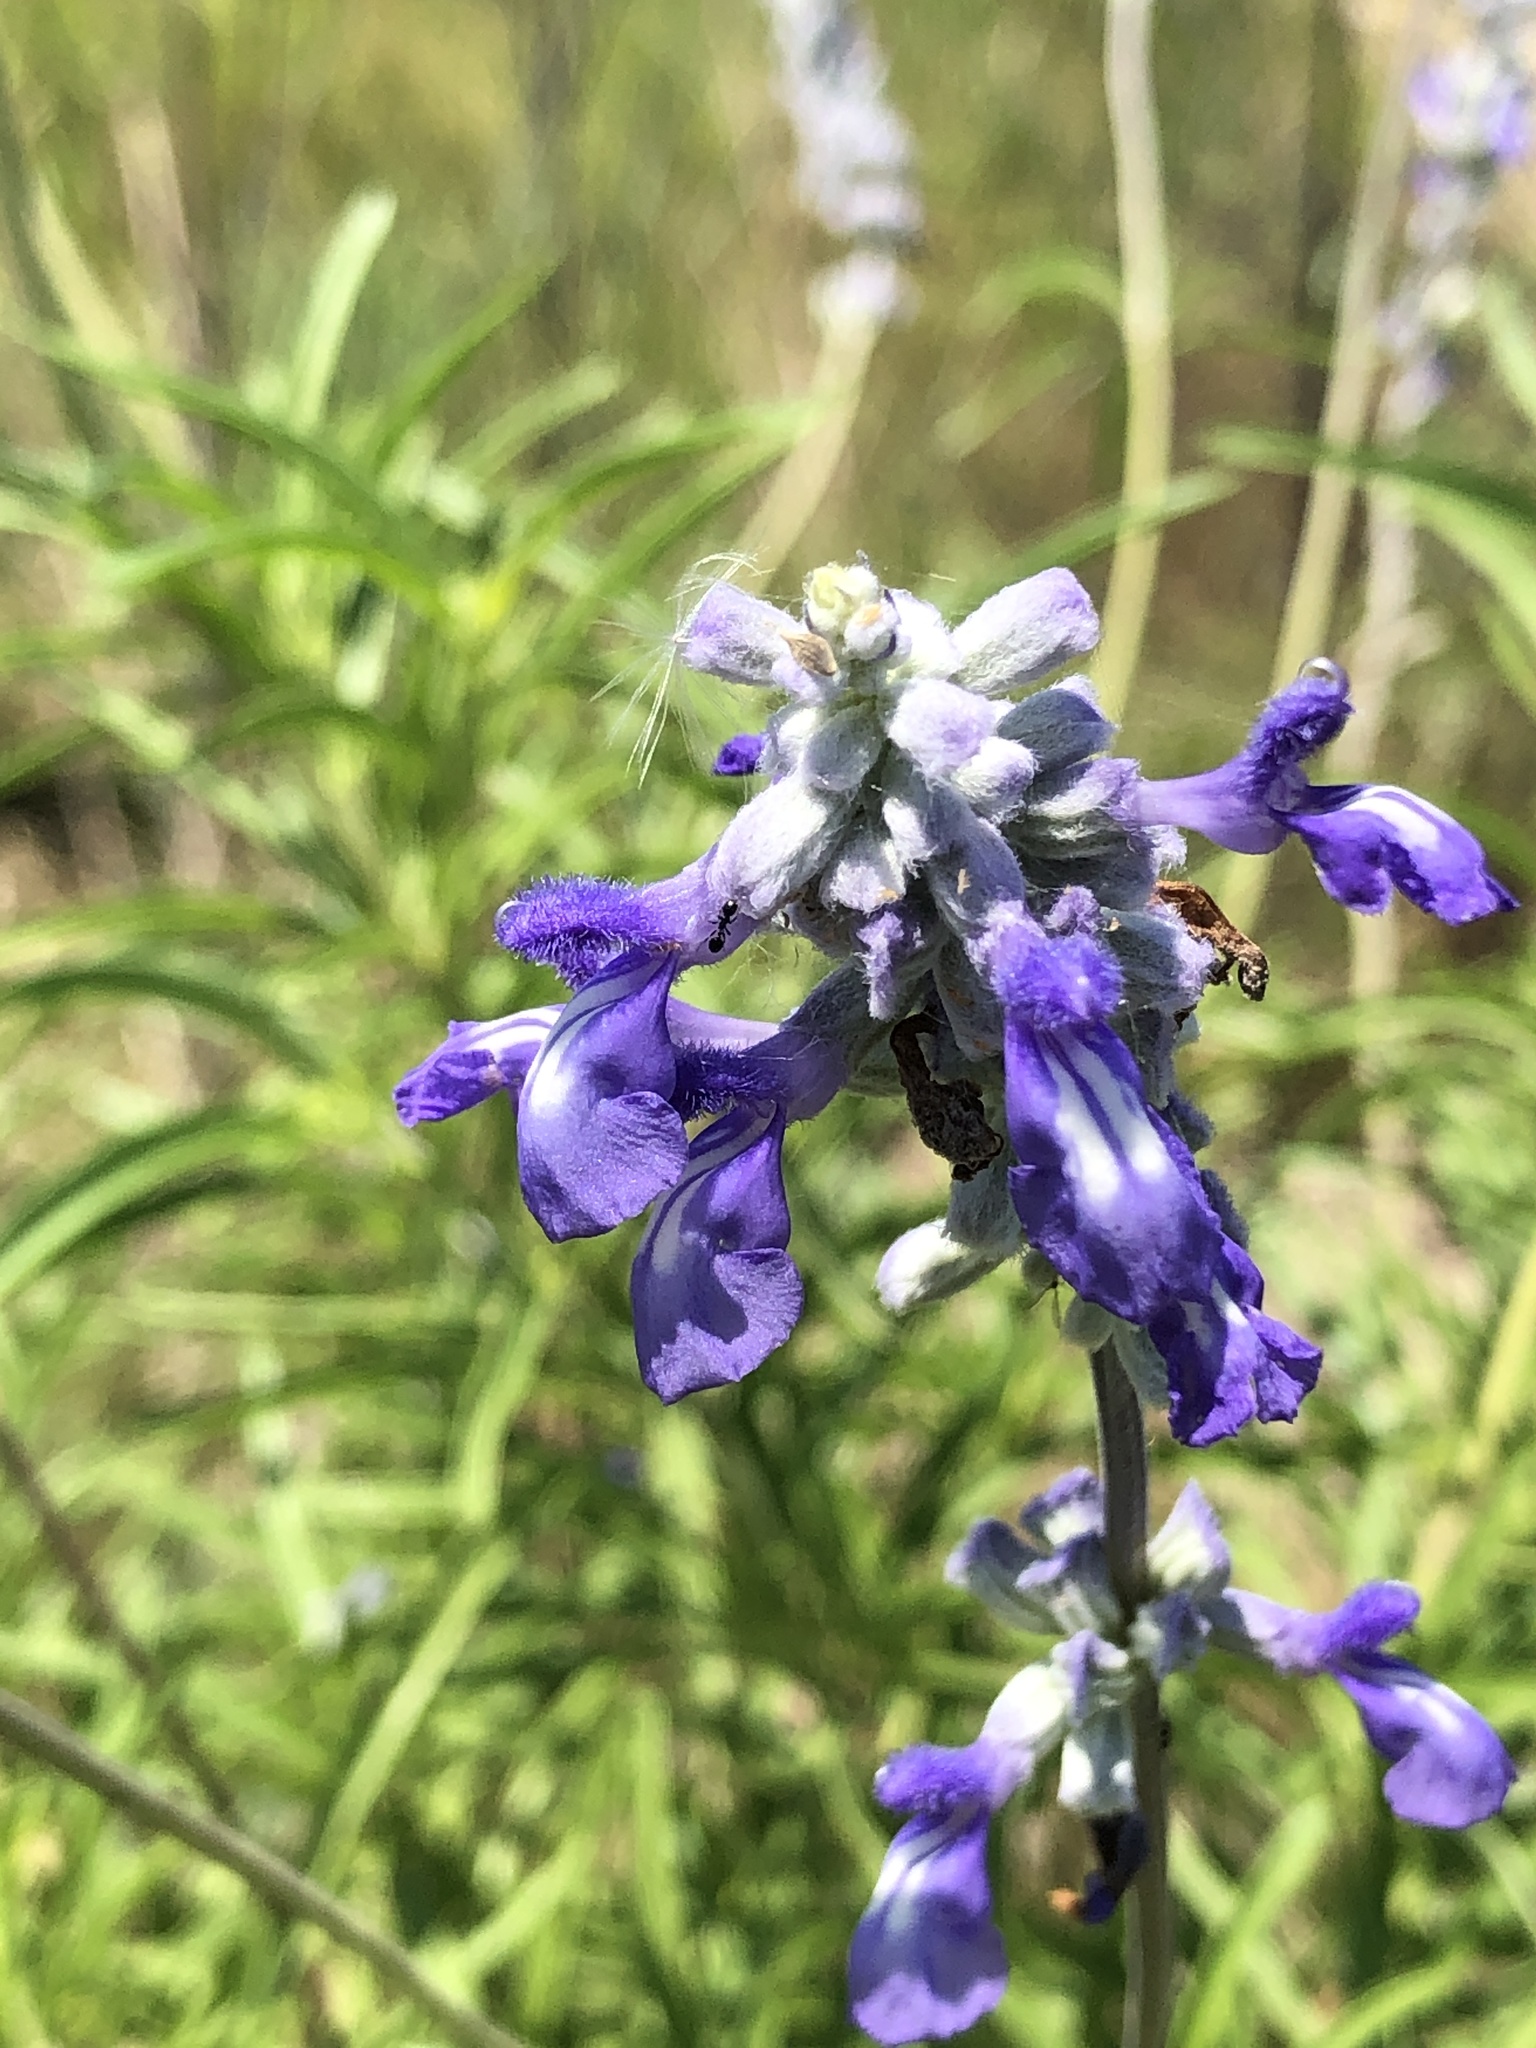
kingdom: Plantae
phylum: Tracheophyta
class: Magnoliopsida
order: Lamiales
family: Lamiaceae
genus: Salvia
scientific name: Salvia farinacea
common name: Mealy sage
